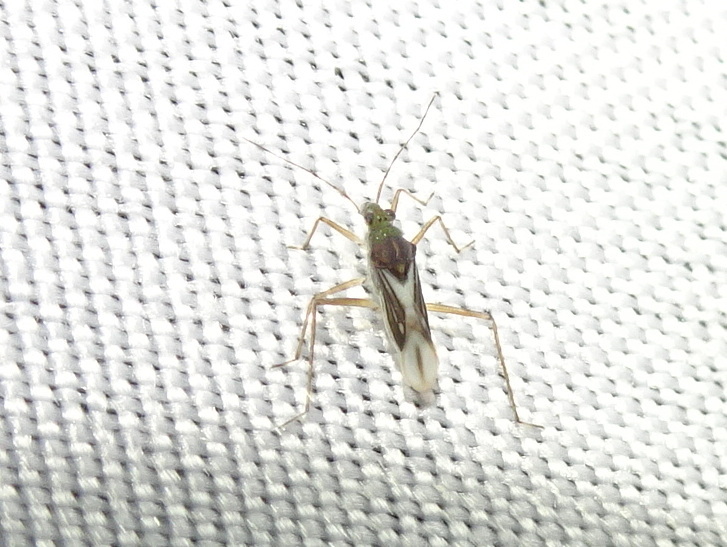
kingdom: Animalia
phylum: Arthropoda
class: Insecta
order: Hemiptera
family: Mesoveliidae
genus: Mesovelia
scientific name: Mesovelia mulsanti
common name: Water treaders
